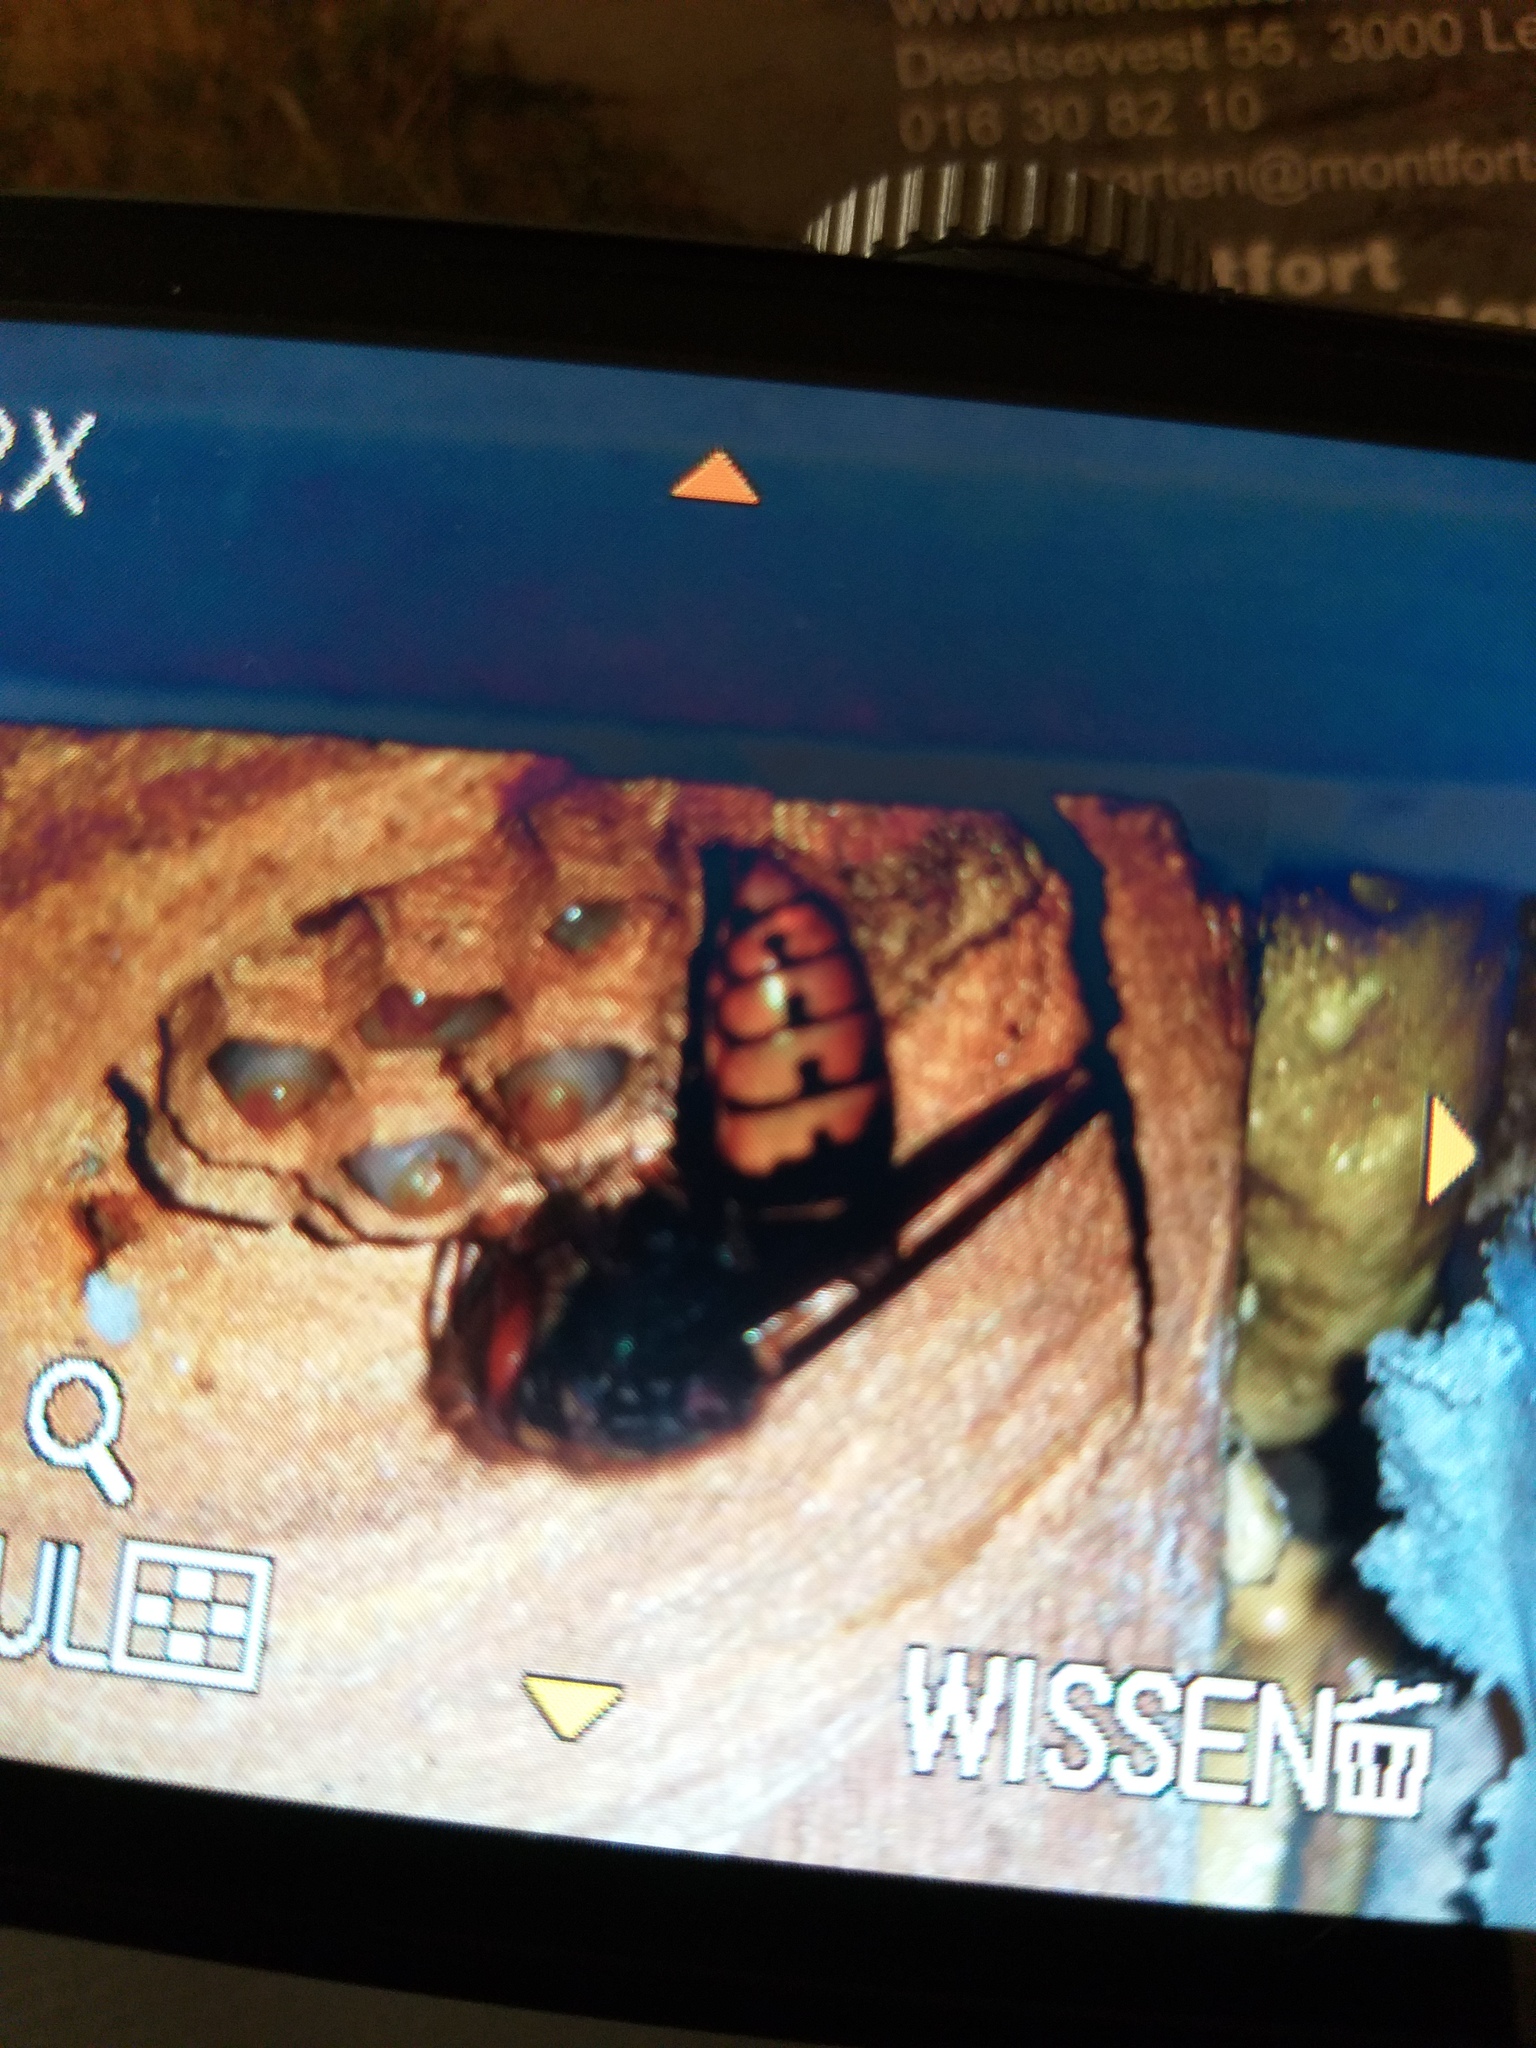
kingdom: Animalia
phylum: Arthropoda
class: Insecta
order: Hymenoptera
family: Vespidae
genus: Vespa
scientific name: Vespa crabro
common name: Hornet
